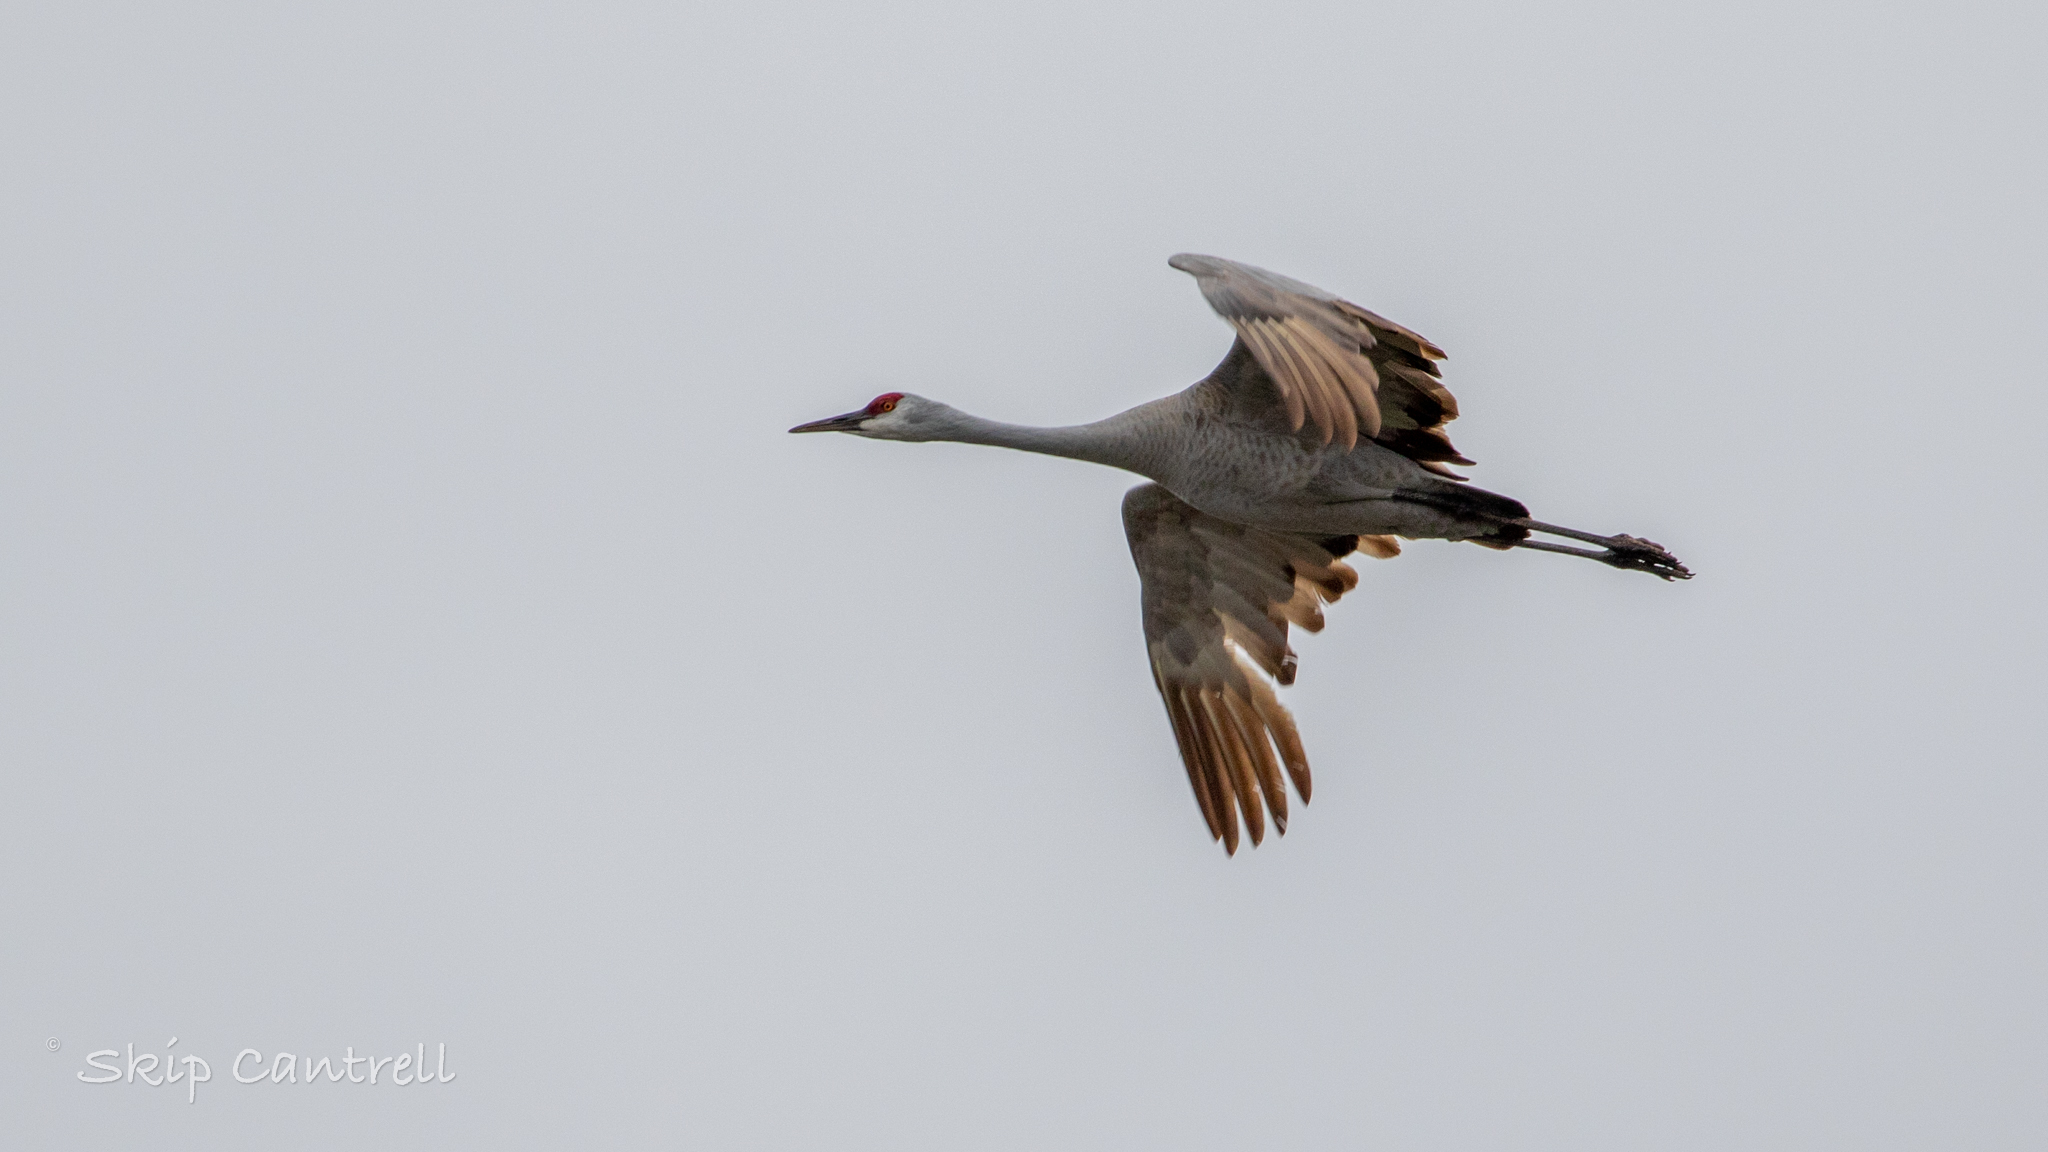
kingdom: Animalia
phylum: Chordata
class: Aves
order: Gruiformes
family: Gruidae
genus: Grus
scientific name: Grus canadensis
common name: Sandhill crane
